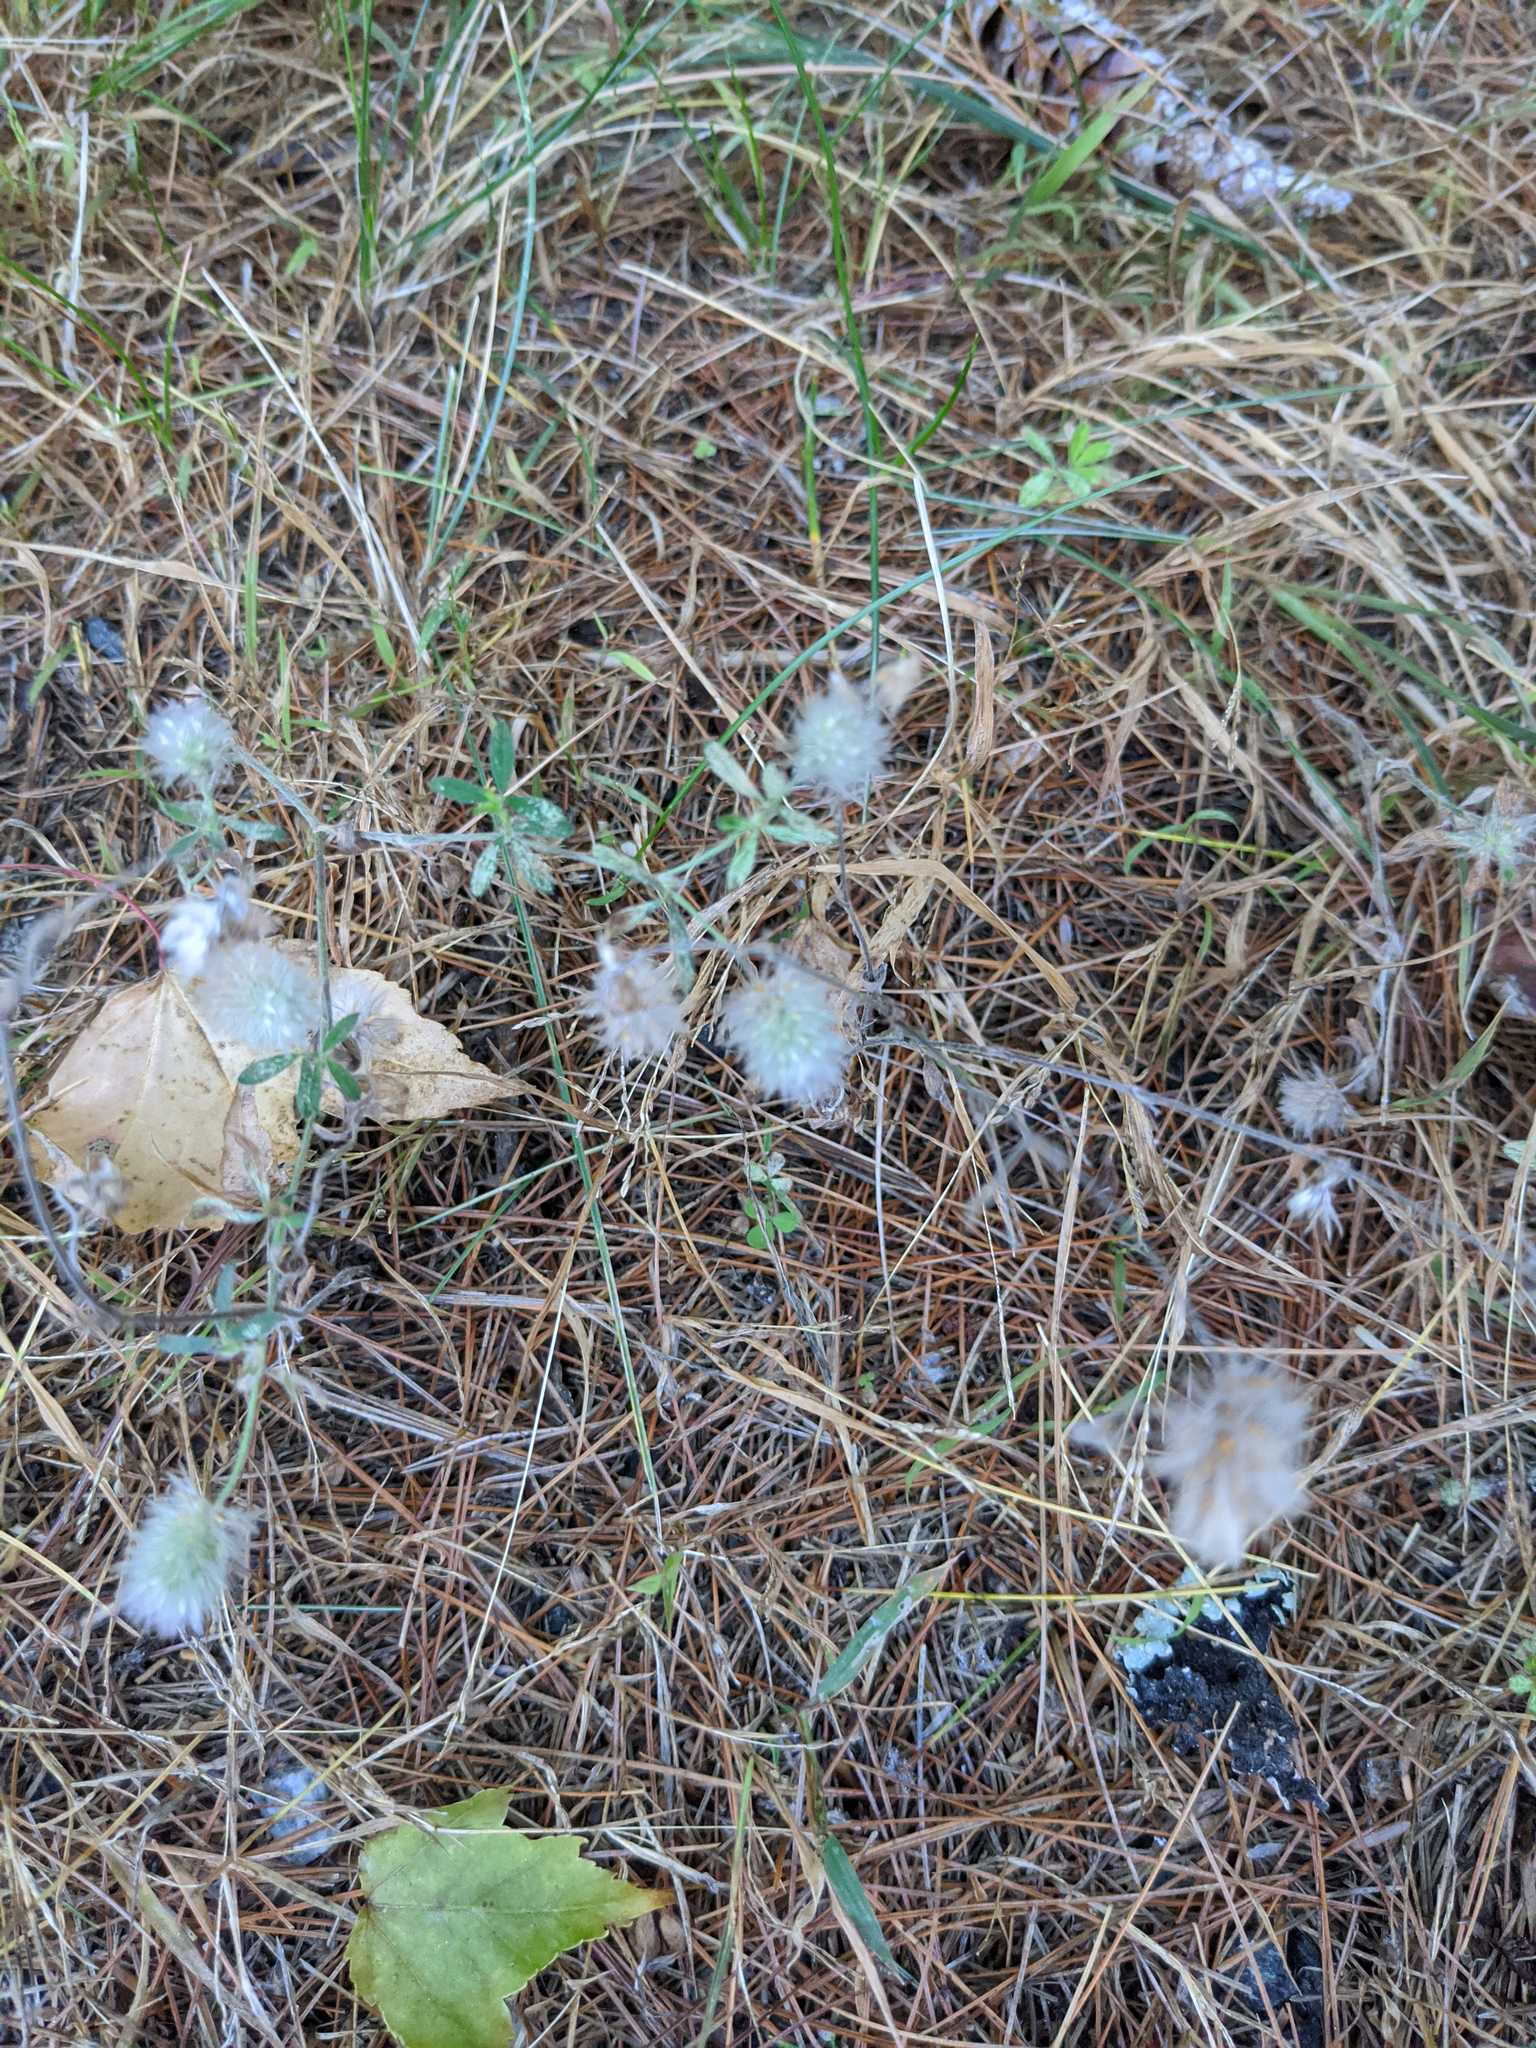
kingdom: Plantae
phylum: Tracheophyta
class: Magnoliopsida
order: Fabales
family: Fabaceae
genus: Trifolium
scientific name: Trifolium arvense
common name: Hare's-foot clover
